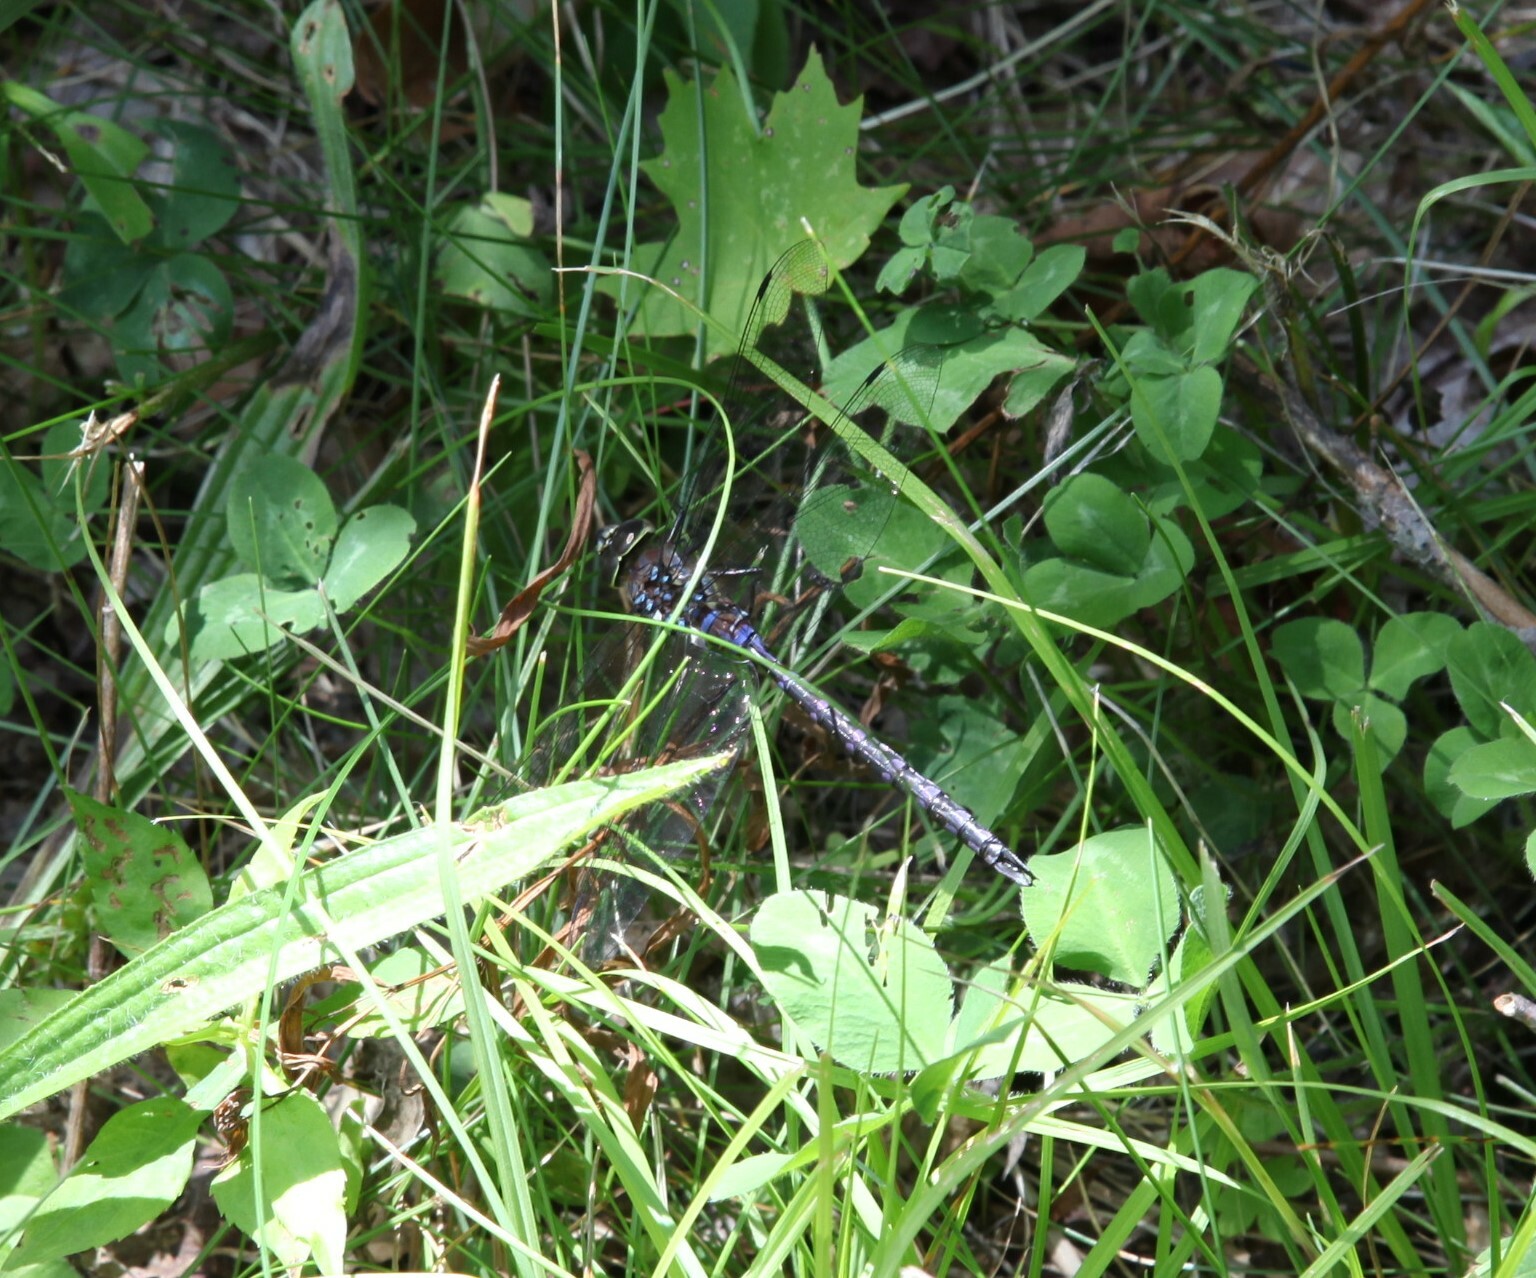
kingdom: Animalia
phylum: Arthropoda
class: Insecta
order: Odonata
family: Aeshnidae
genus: Aeshna
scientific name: Aeshna constricta
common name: Lance-tipped darner
